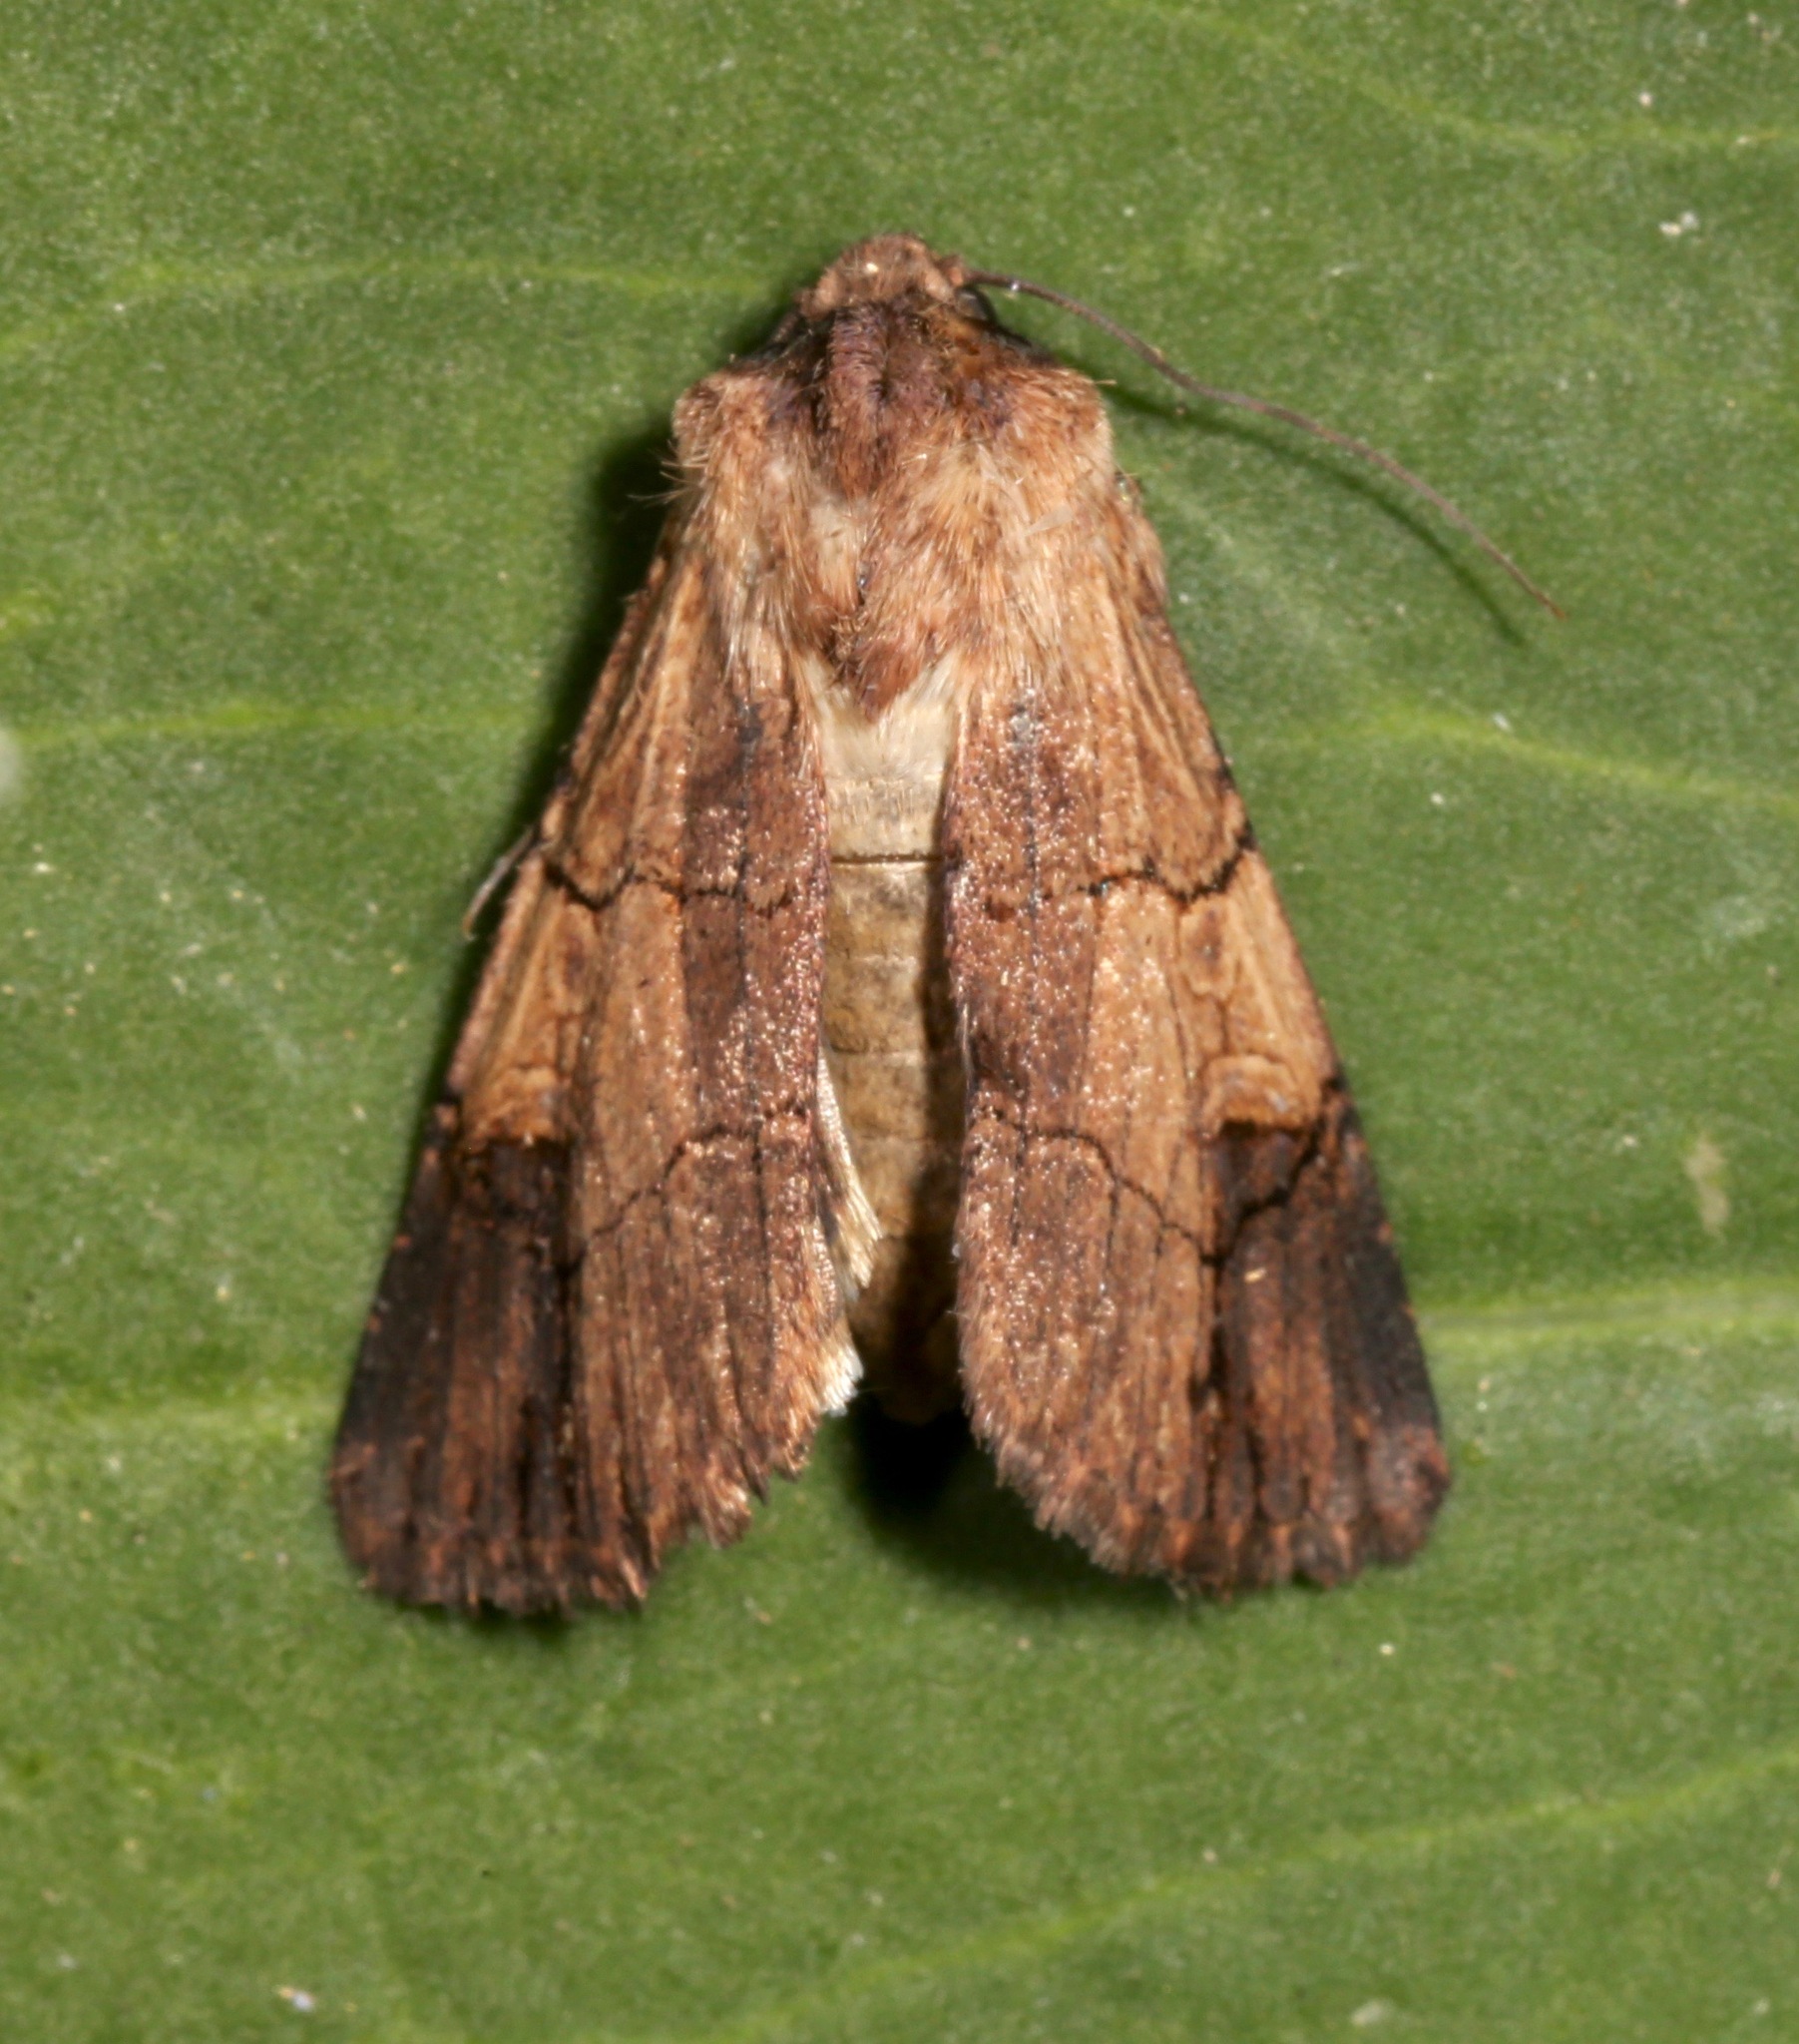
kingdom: Animalia
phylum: Arthropoda
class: Insecta
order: Lepidoptera
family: Noctuidae
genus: Dichagyris
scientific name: Dichagyris grotei
